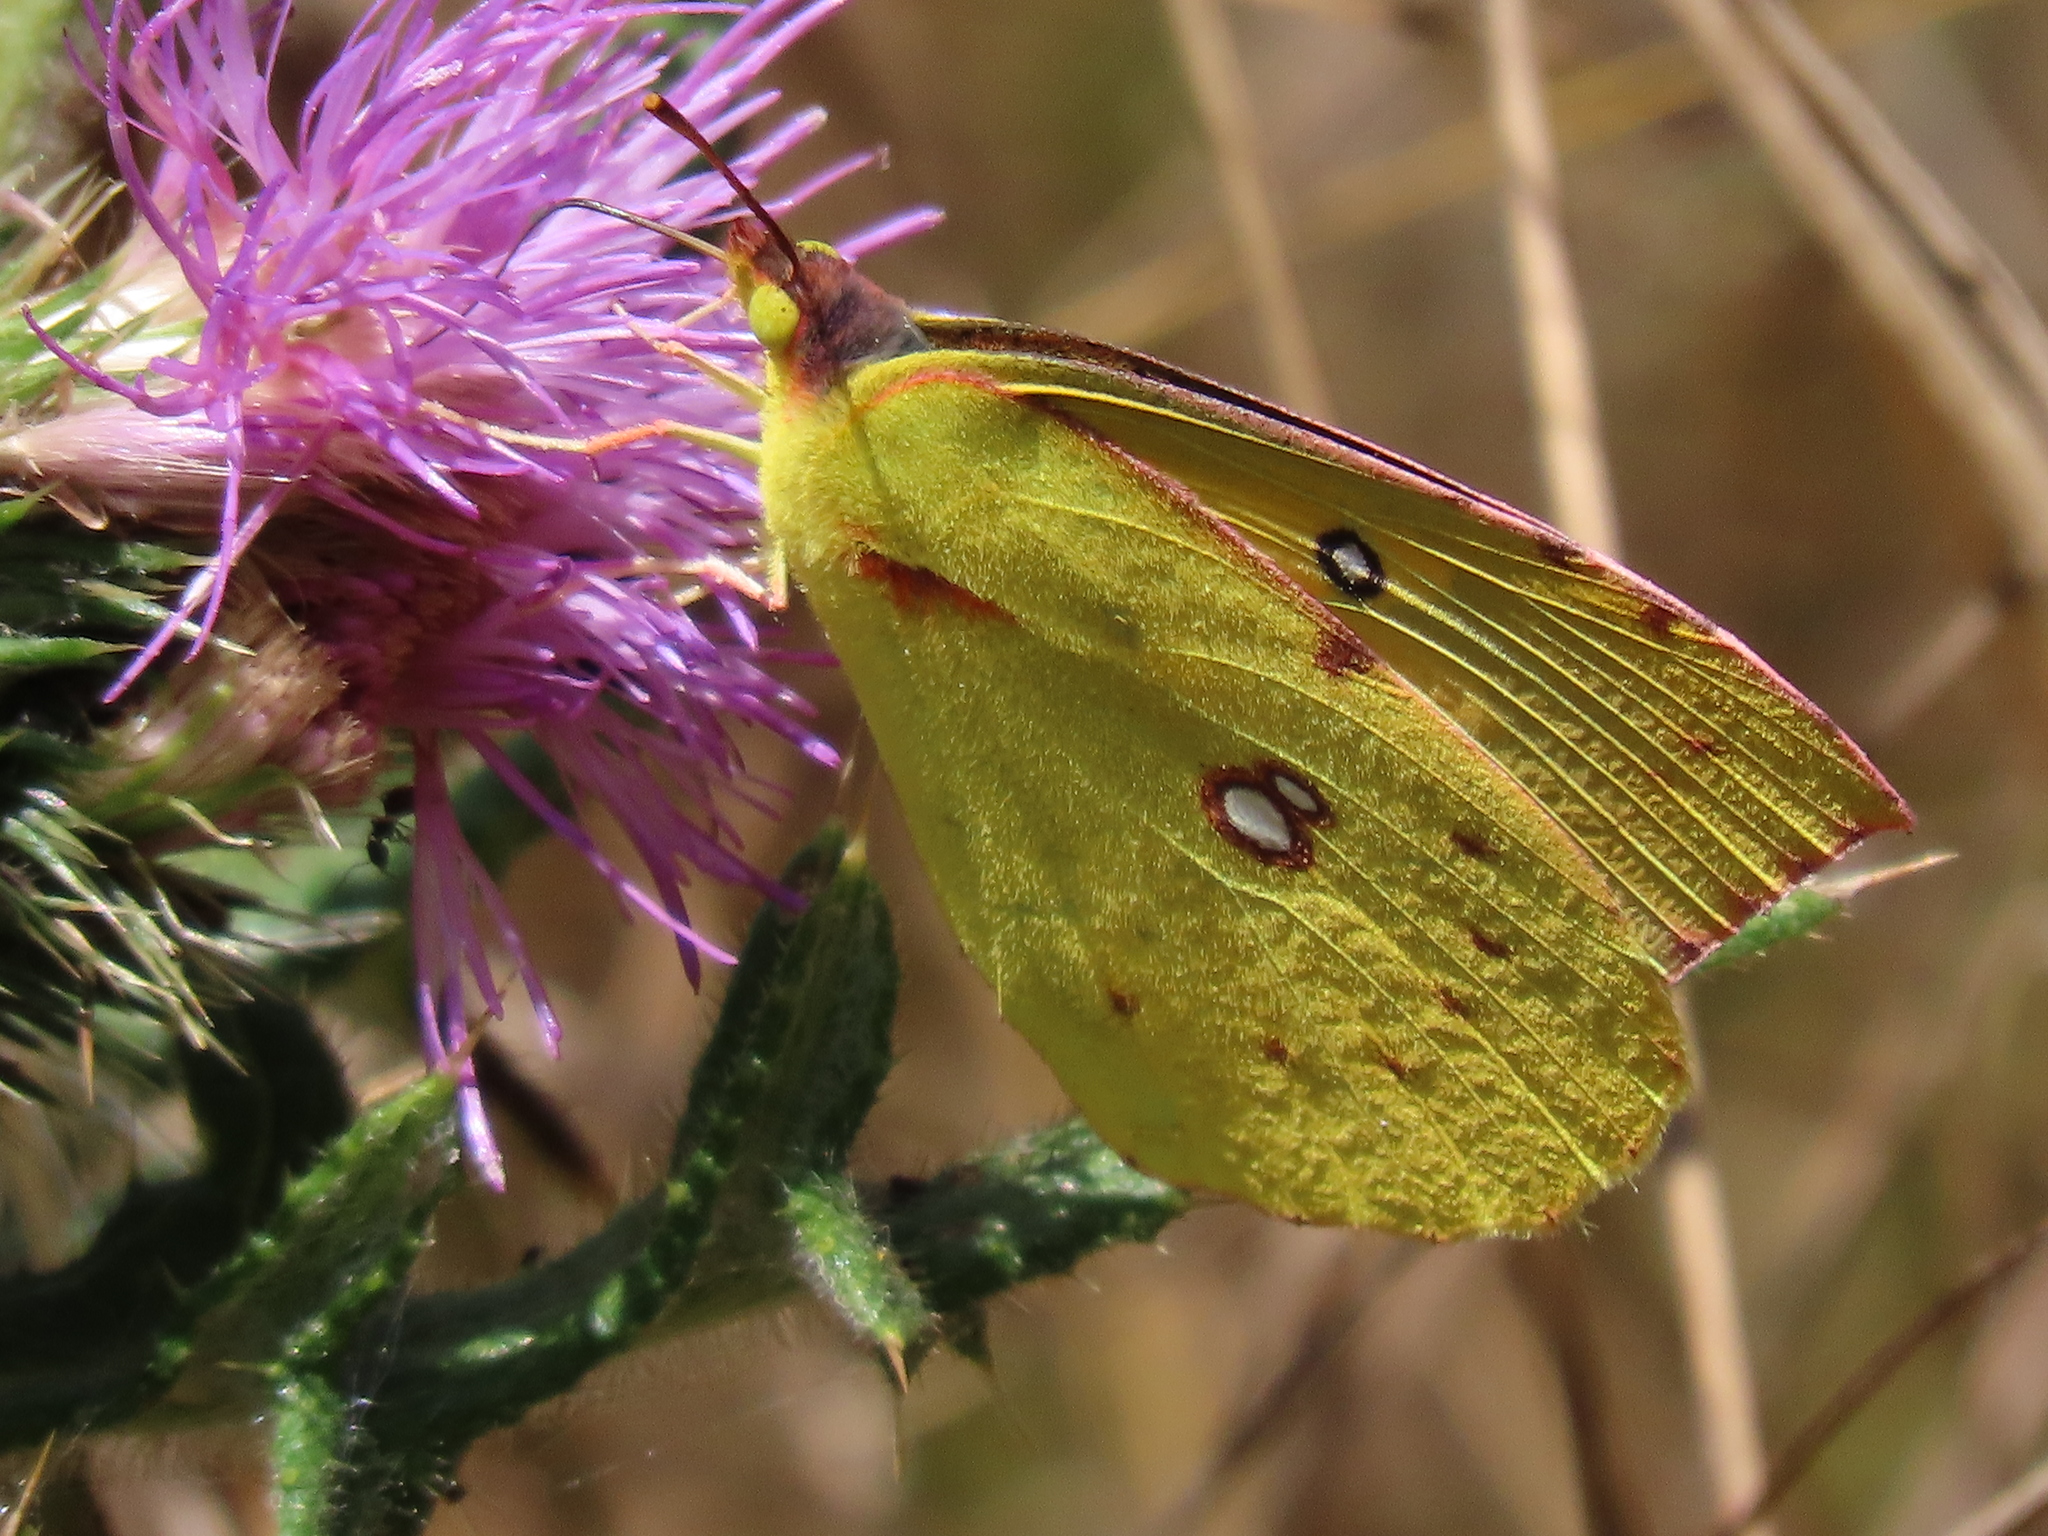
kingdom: Animalia
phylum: Arthropoda
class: Insecta
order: Lepidoptera
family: Pieridae
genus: Zerene
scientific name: Zerene eurydice
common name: California dogface
